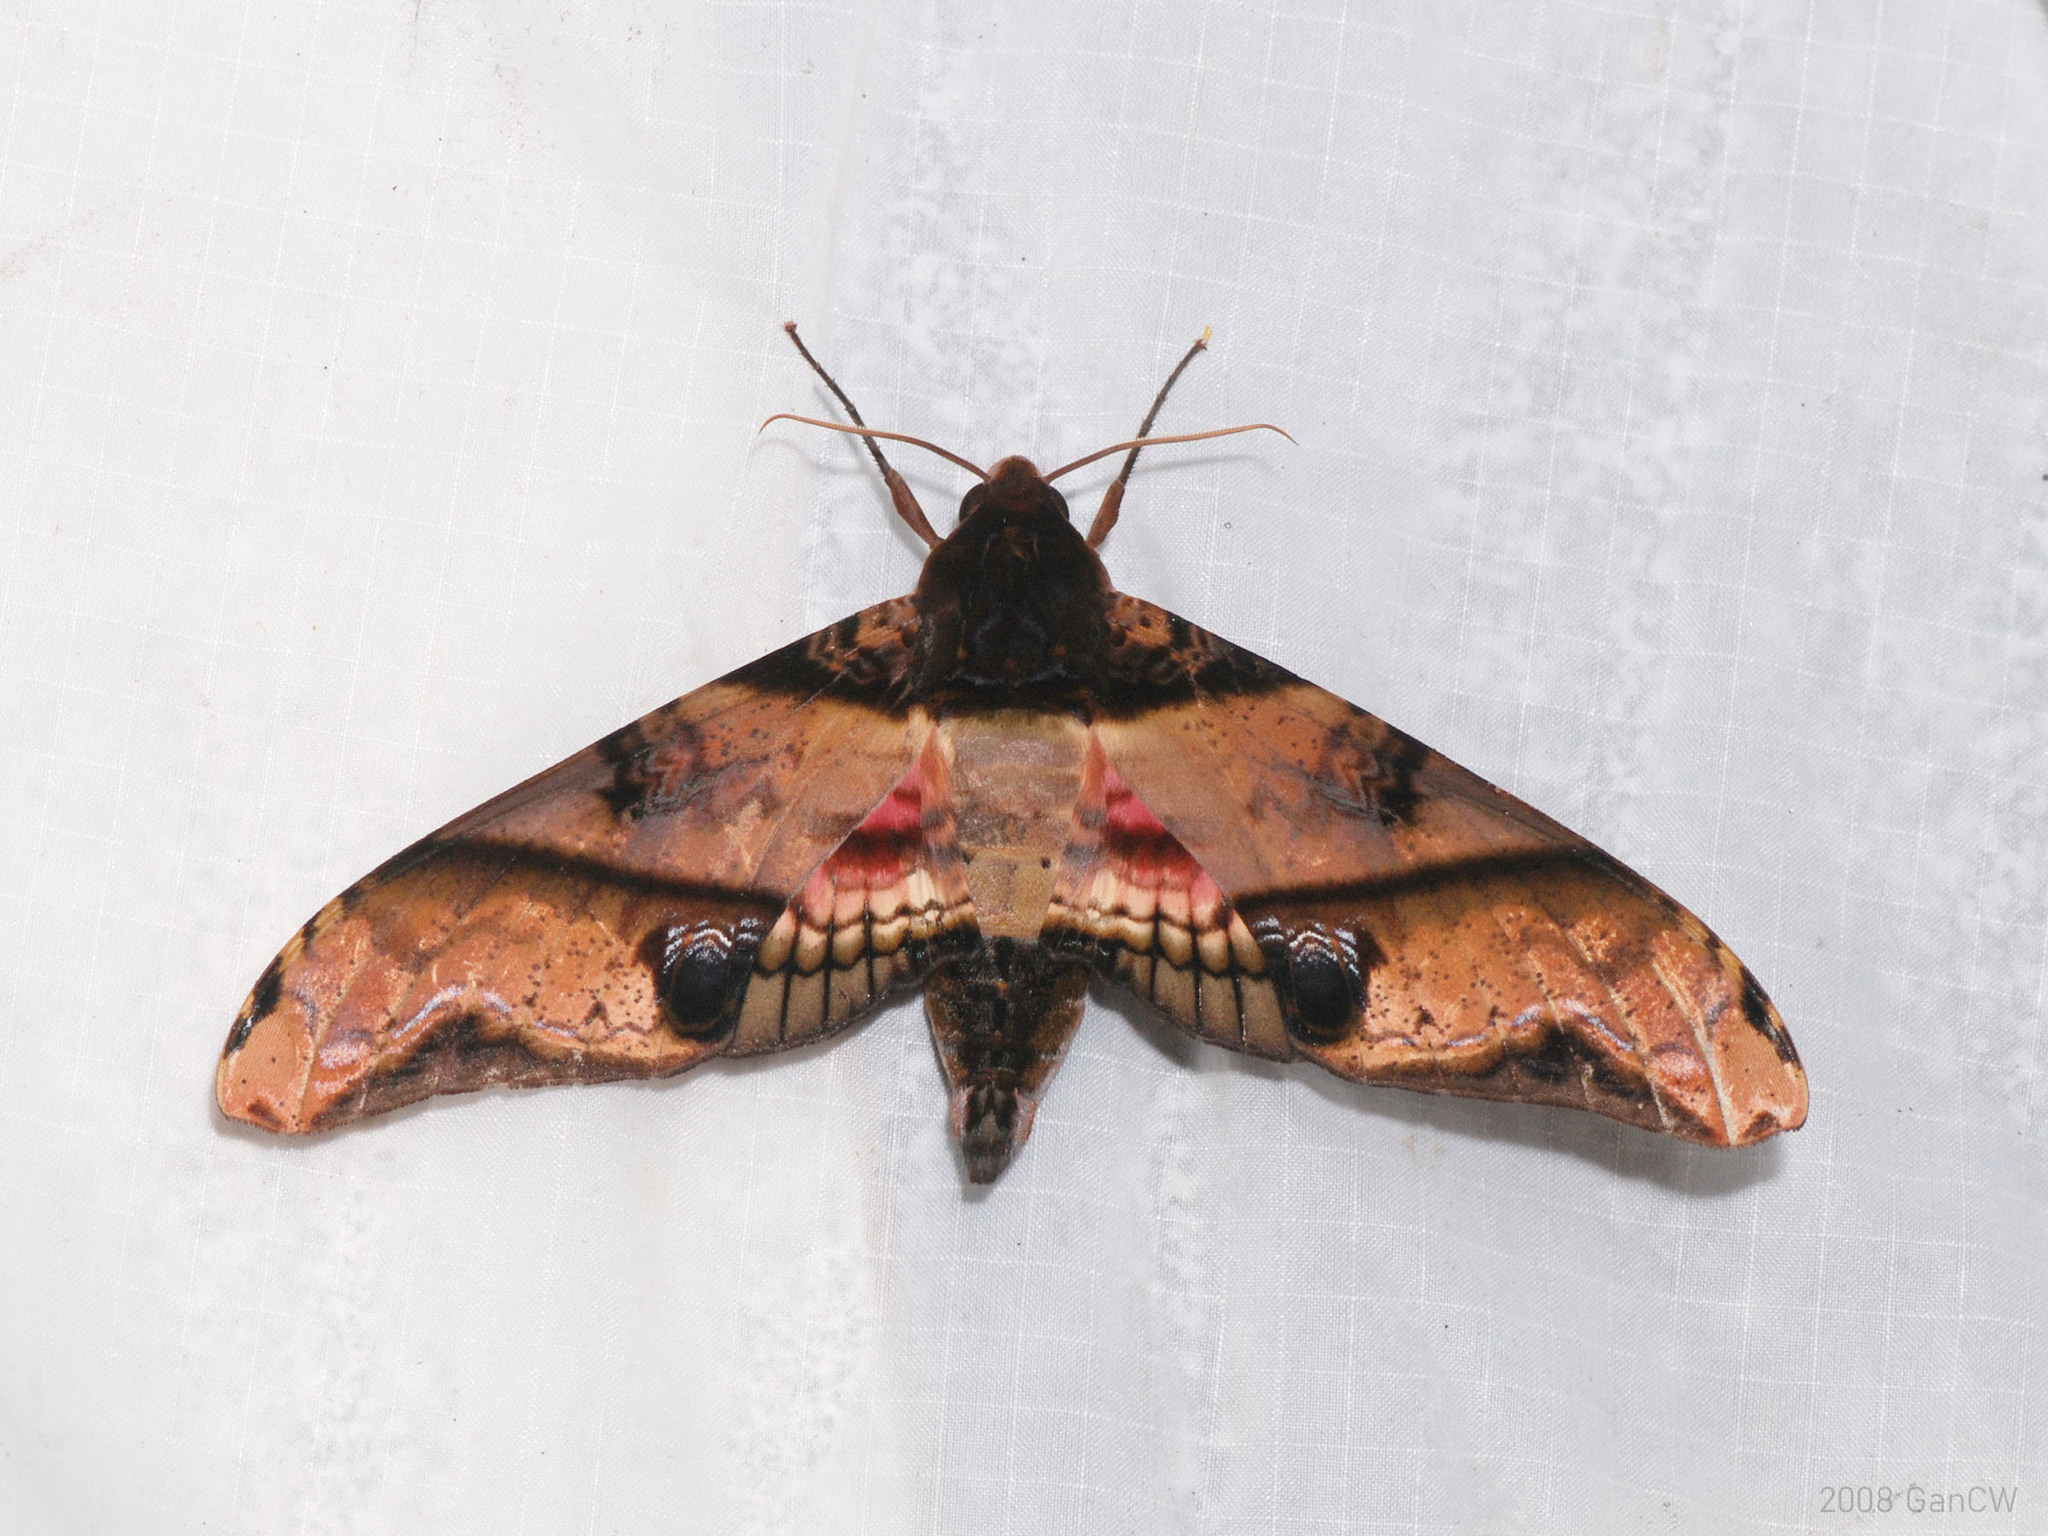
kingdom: Animalia
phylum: Arthropoda
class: Insecta
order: Lepidoptera
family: Sphingidae
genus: Amplypterus
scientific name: Amplypterus panopus
